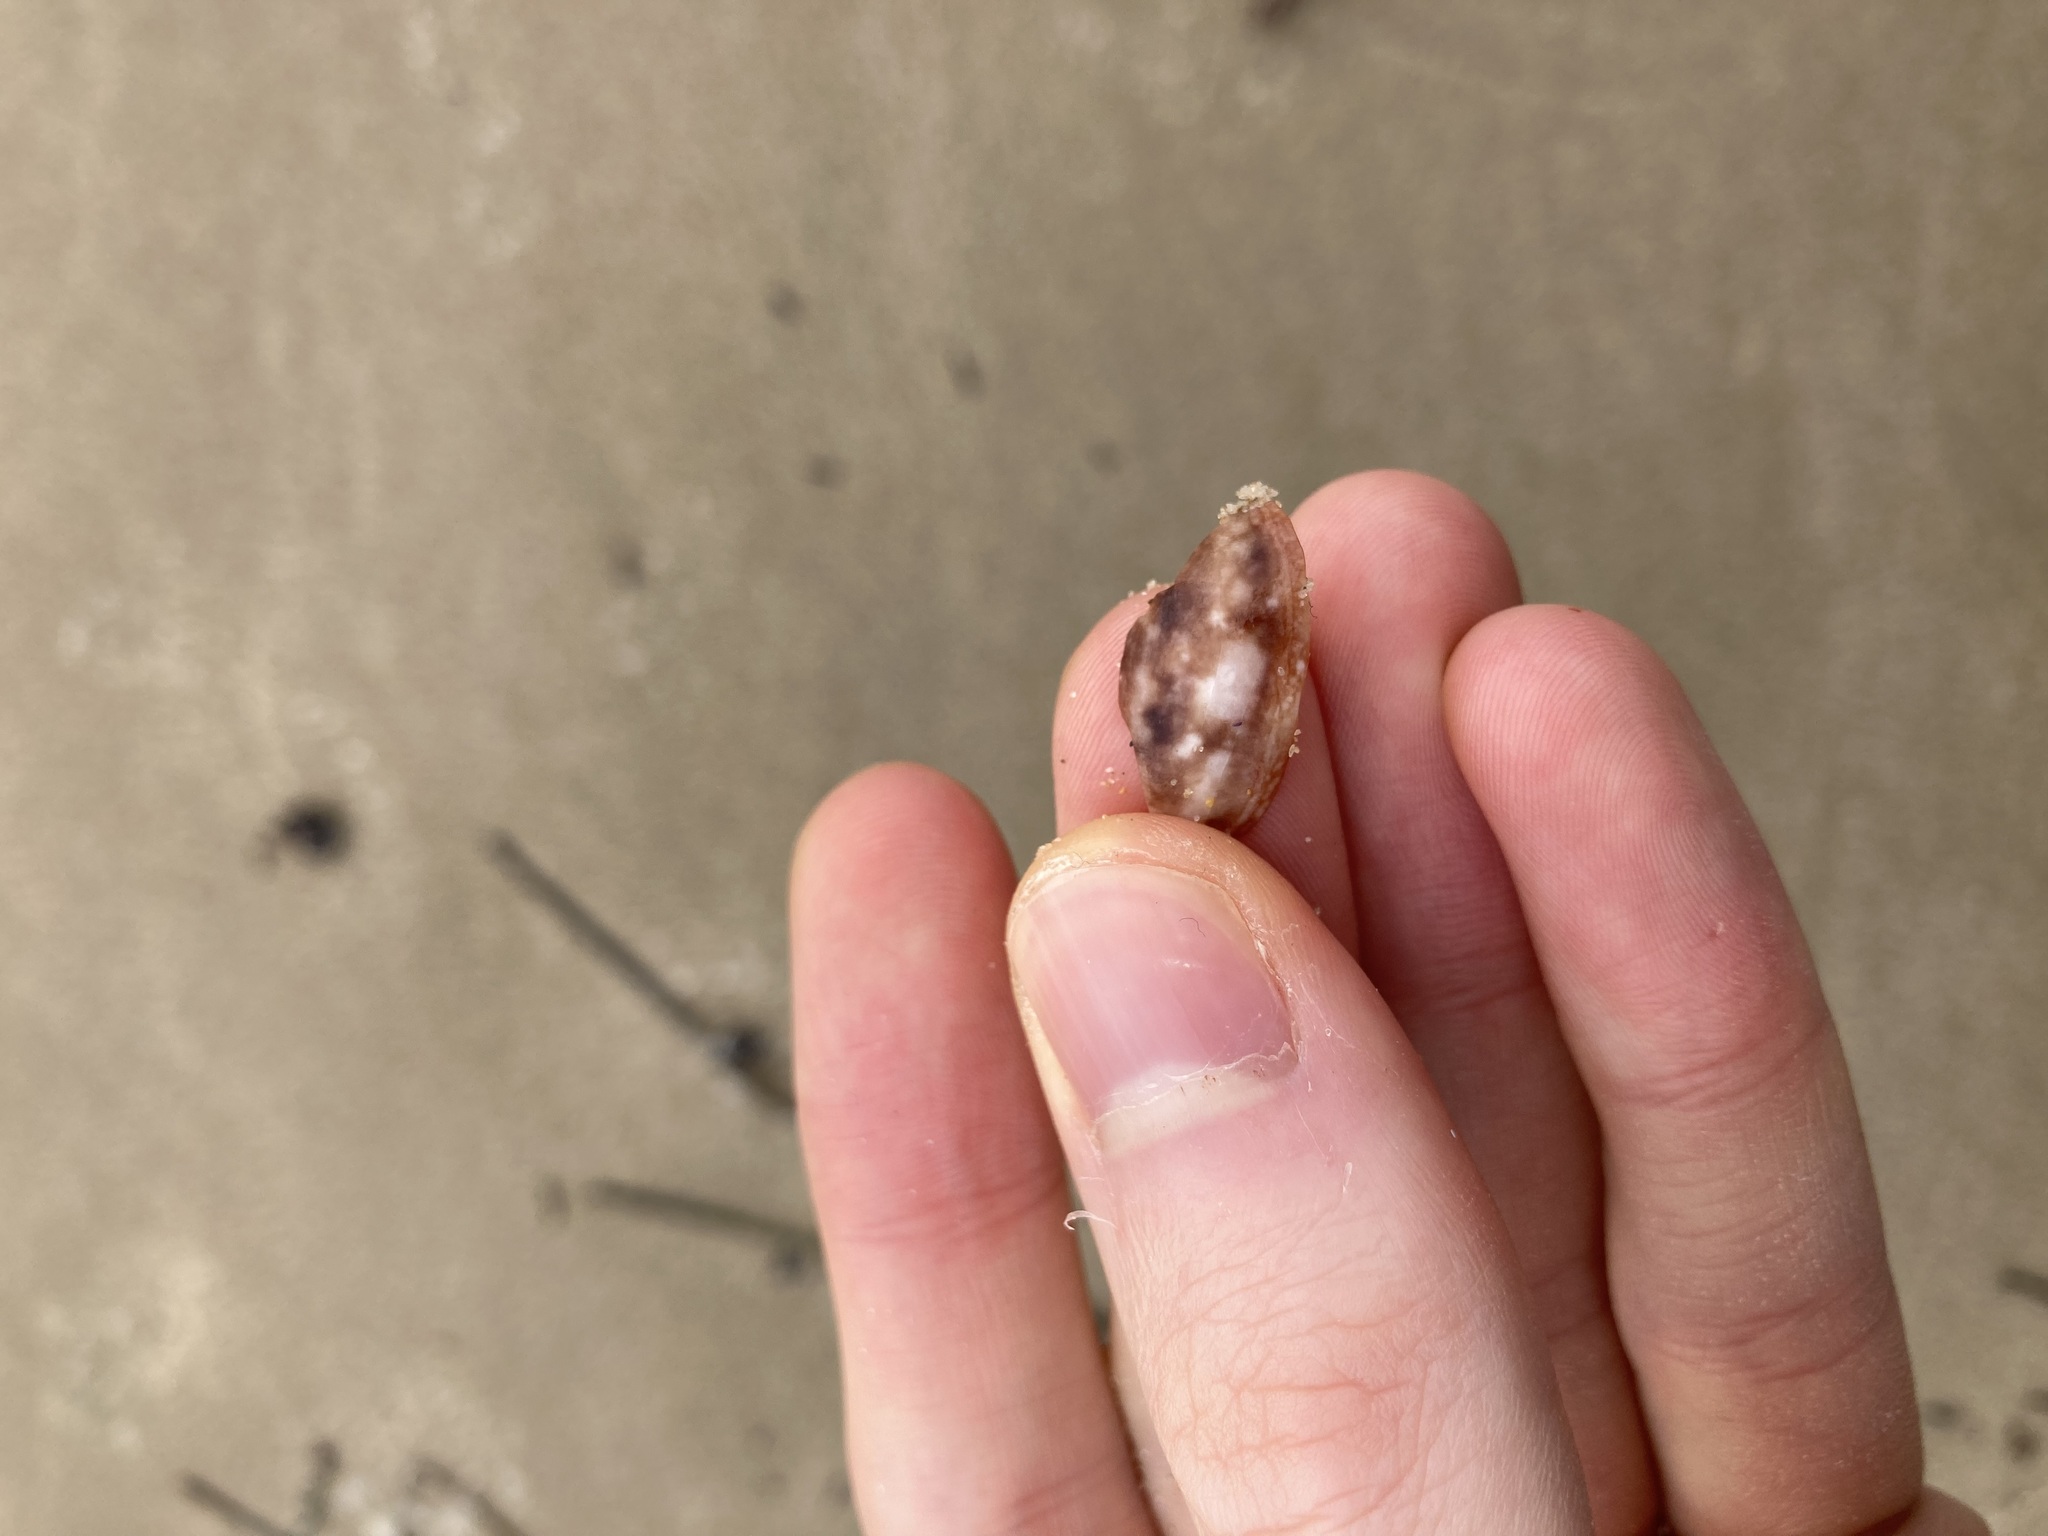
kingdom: Animalia
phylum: Mollusca
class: Gastropoda
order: Cephalaspidea
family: Bullidae
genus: Bulla
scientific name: Bulla quoyii
